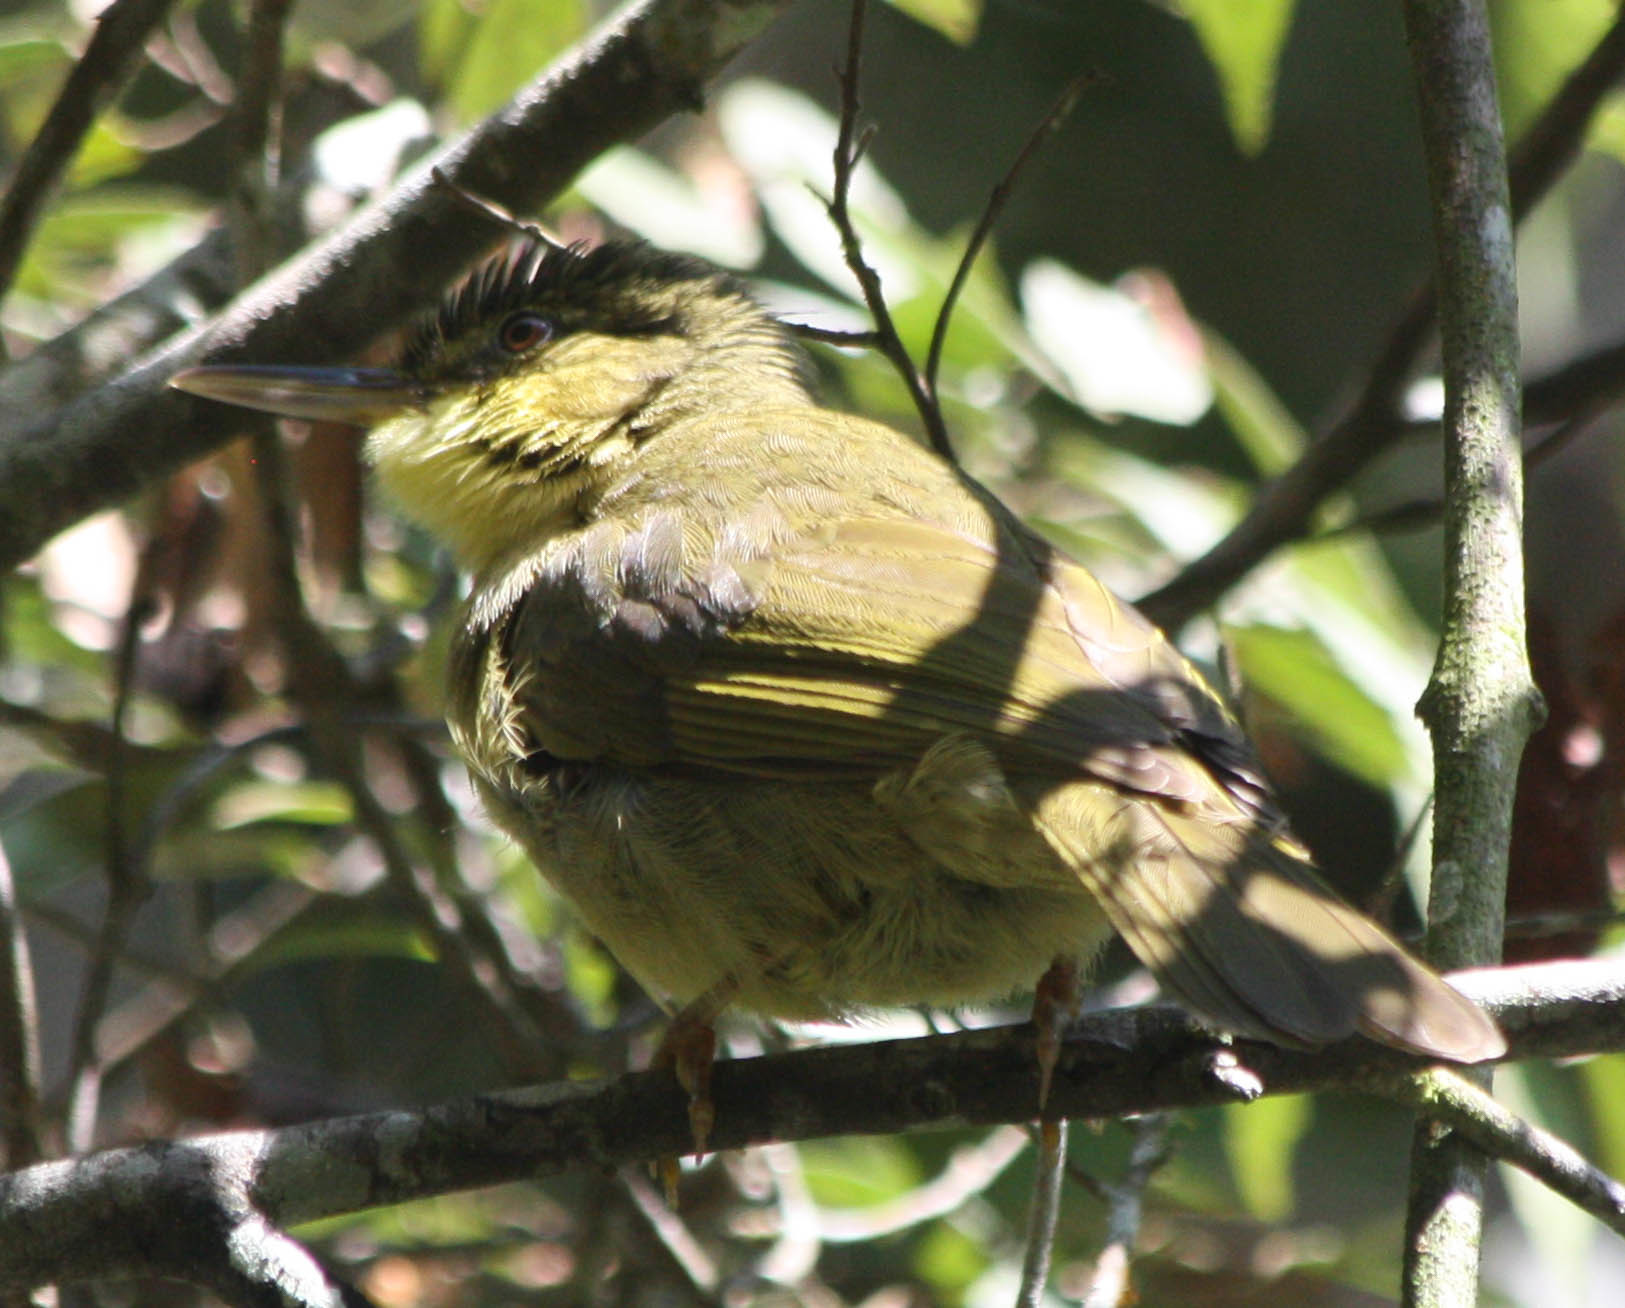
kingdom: Animalia
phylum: Chordata
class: Aves
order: Passeriformes
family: Bernieridae
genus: Bernieria
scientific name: Bernieria madagascariensis
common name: Long-billed bernieria
